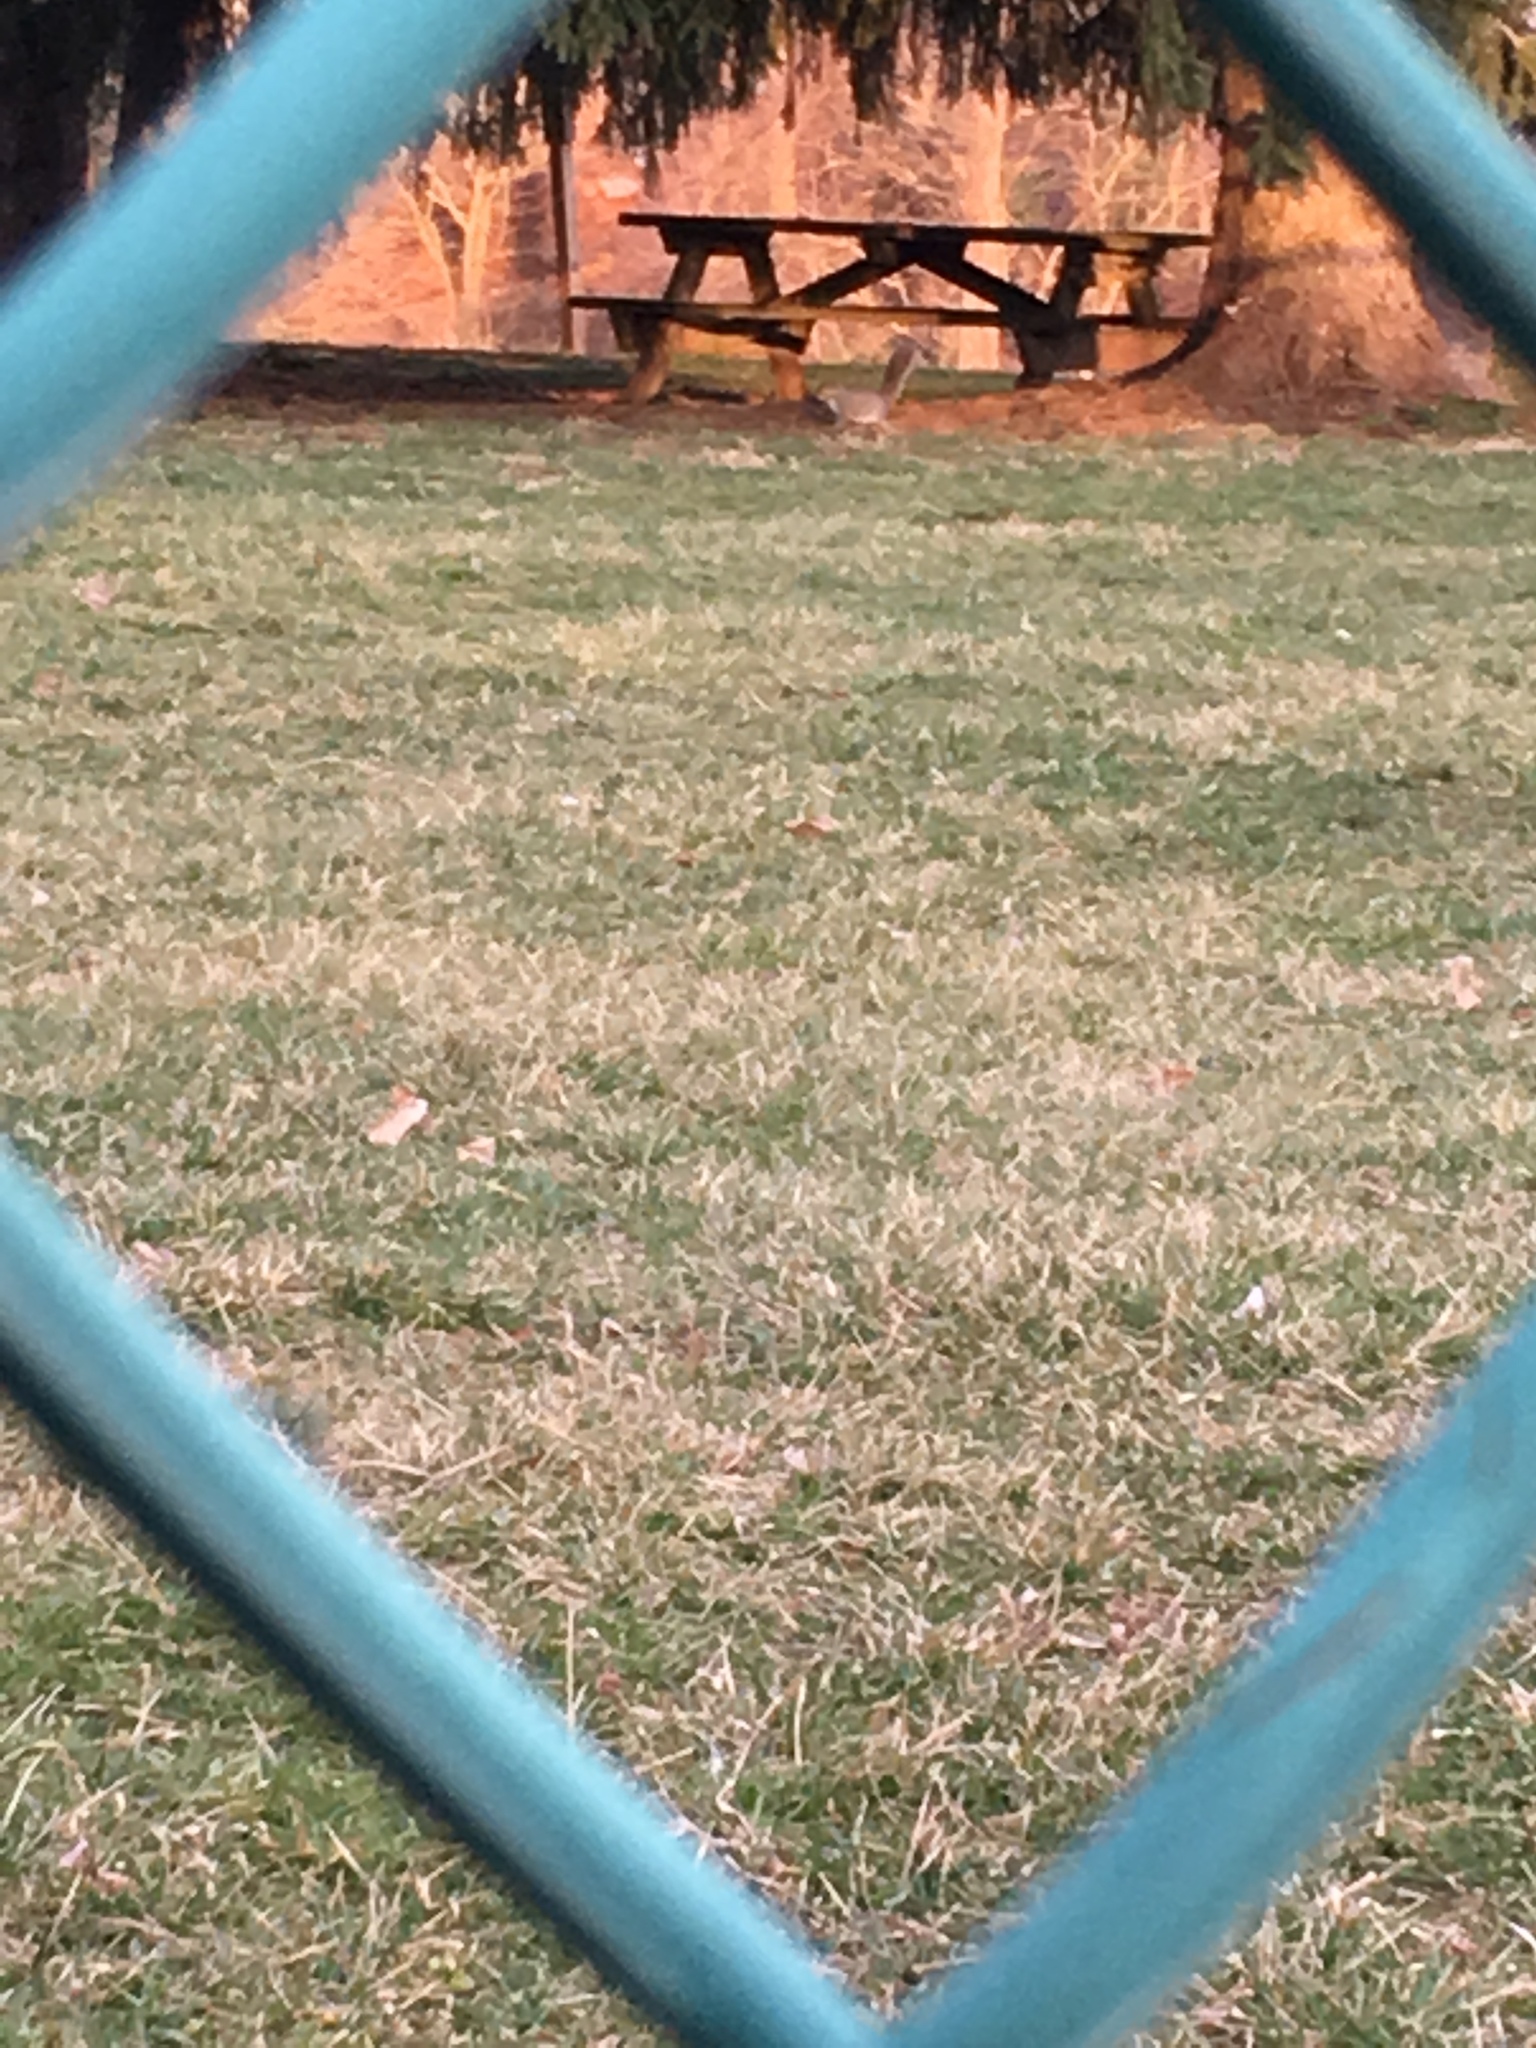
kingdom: Animalia
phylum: Chordata
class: Mammalia
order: Rodentia
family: Sciuridae
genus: Sciurus
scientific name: Sciurus carolinensis
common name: Eastern gray squirrel
